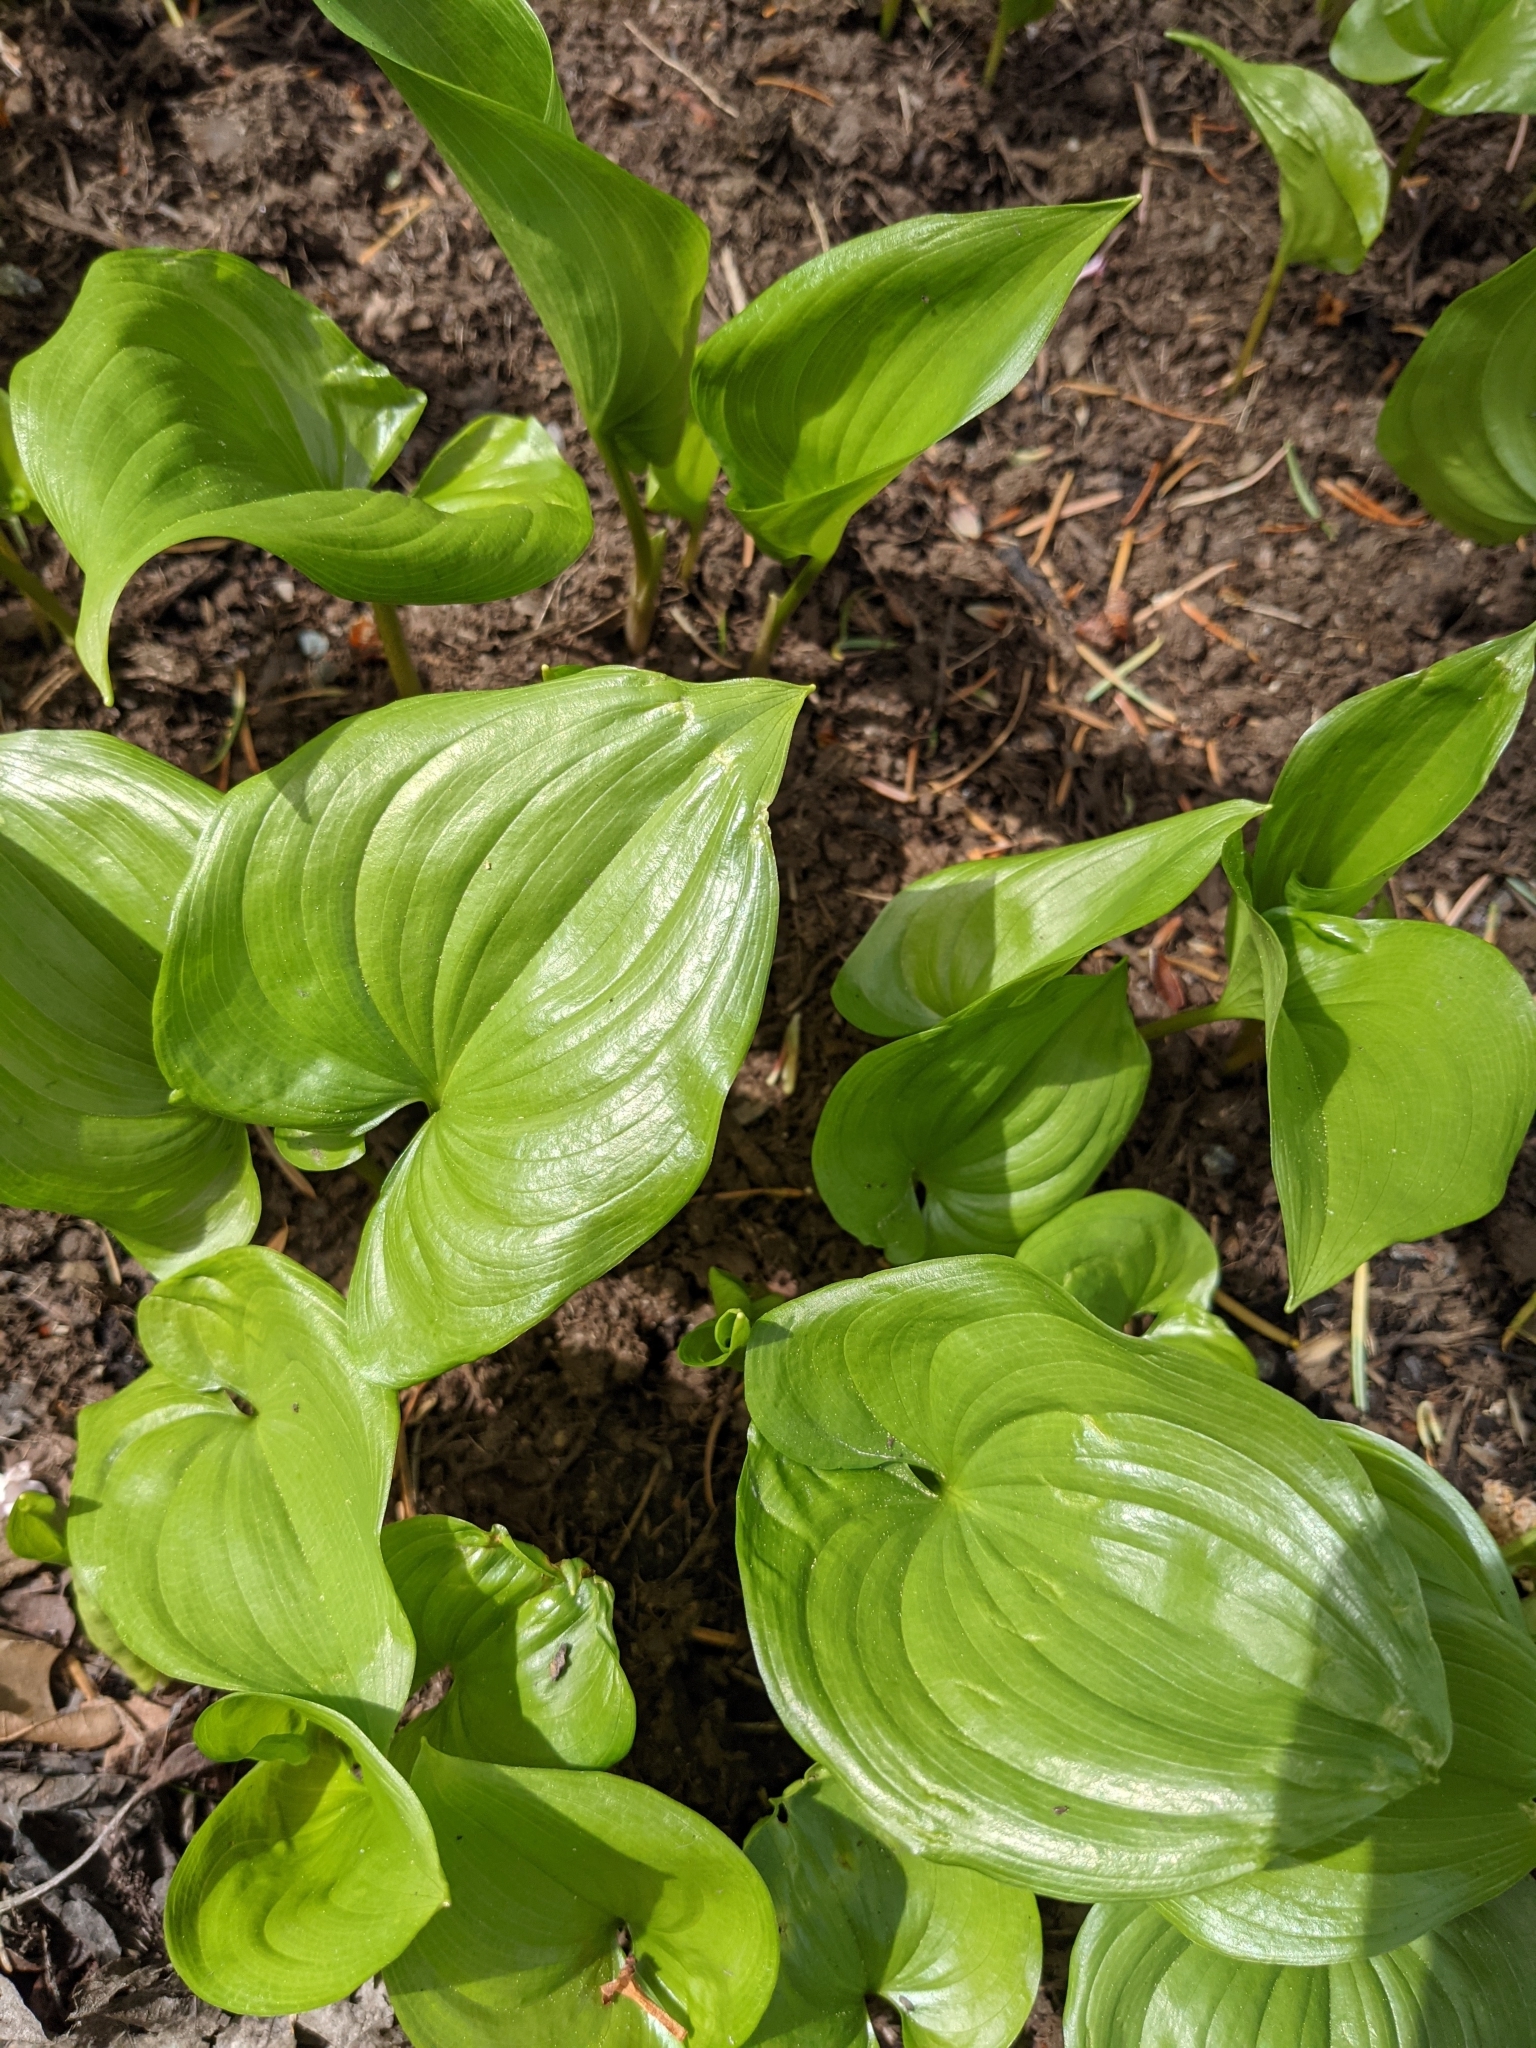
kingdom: Plantae
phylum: Tracheophyta
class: Liliopsida
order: Asparagales
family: Asparagaceae
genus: Maianthemum
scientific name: Maianthemum dilatatum
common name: False lily-of-the-valley
